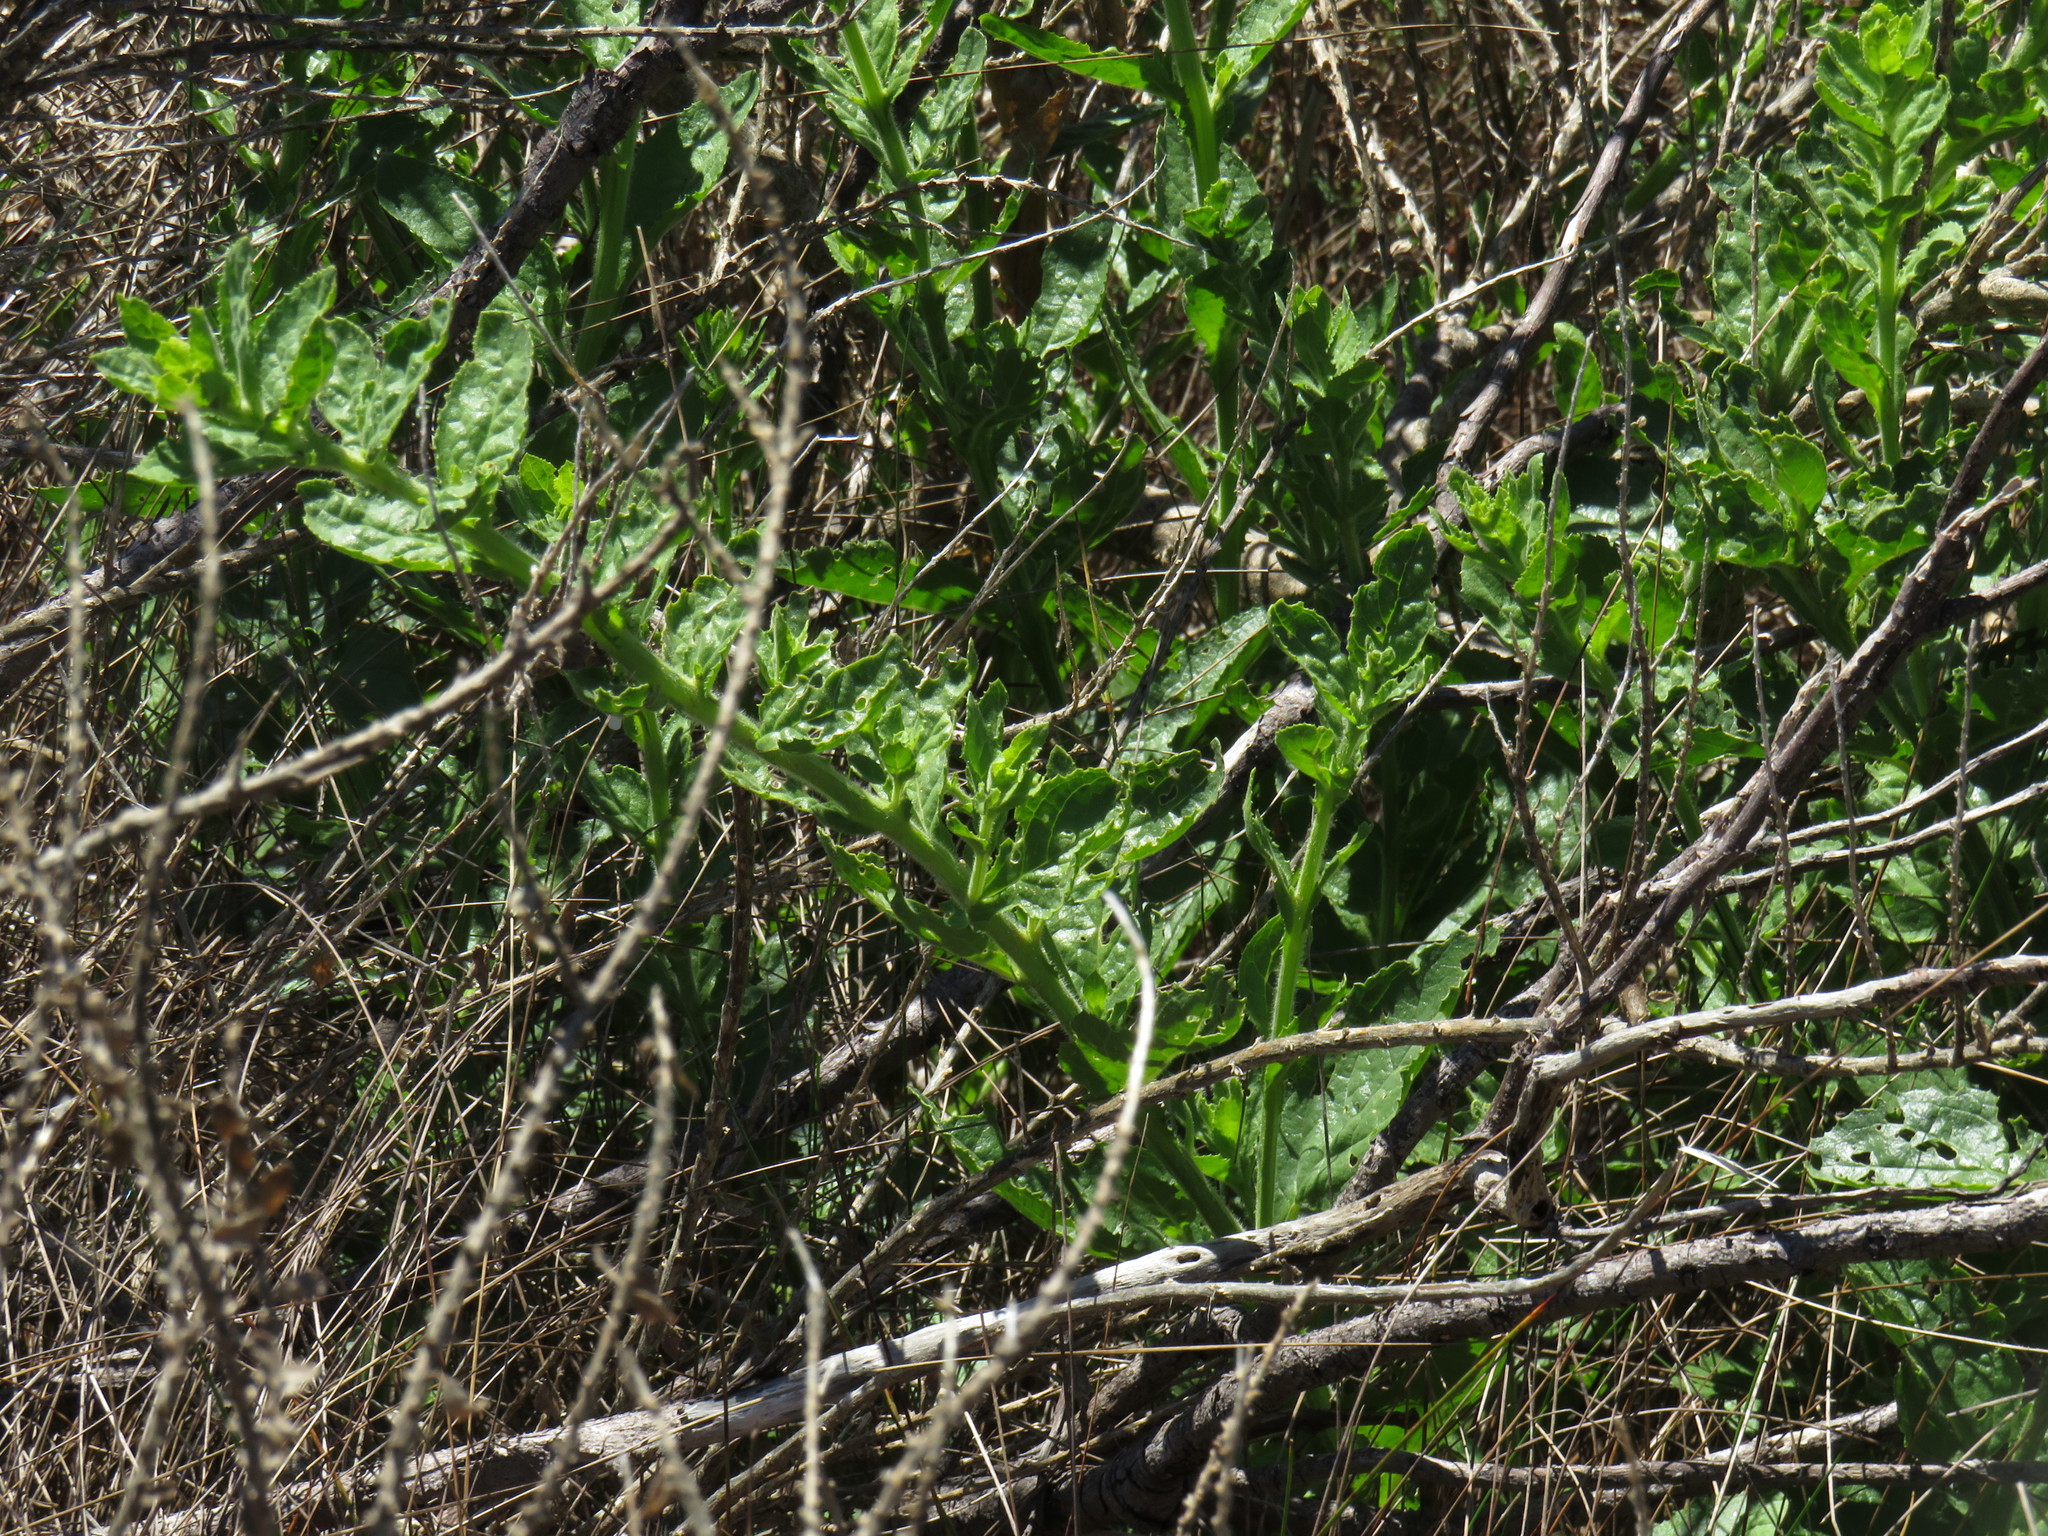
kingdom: Plantae
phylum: Tracheophyta
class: Magnoliopsida
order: Lamiales
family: Scrophulariaceae
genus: Oftia
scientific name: Oftia africana
